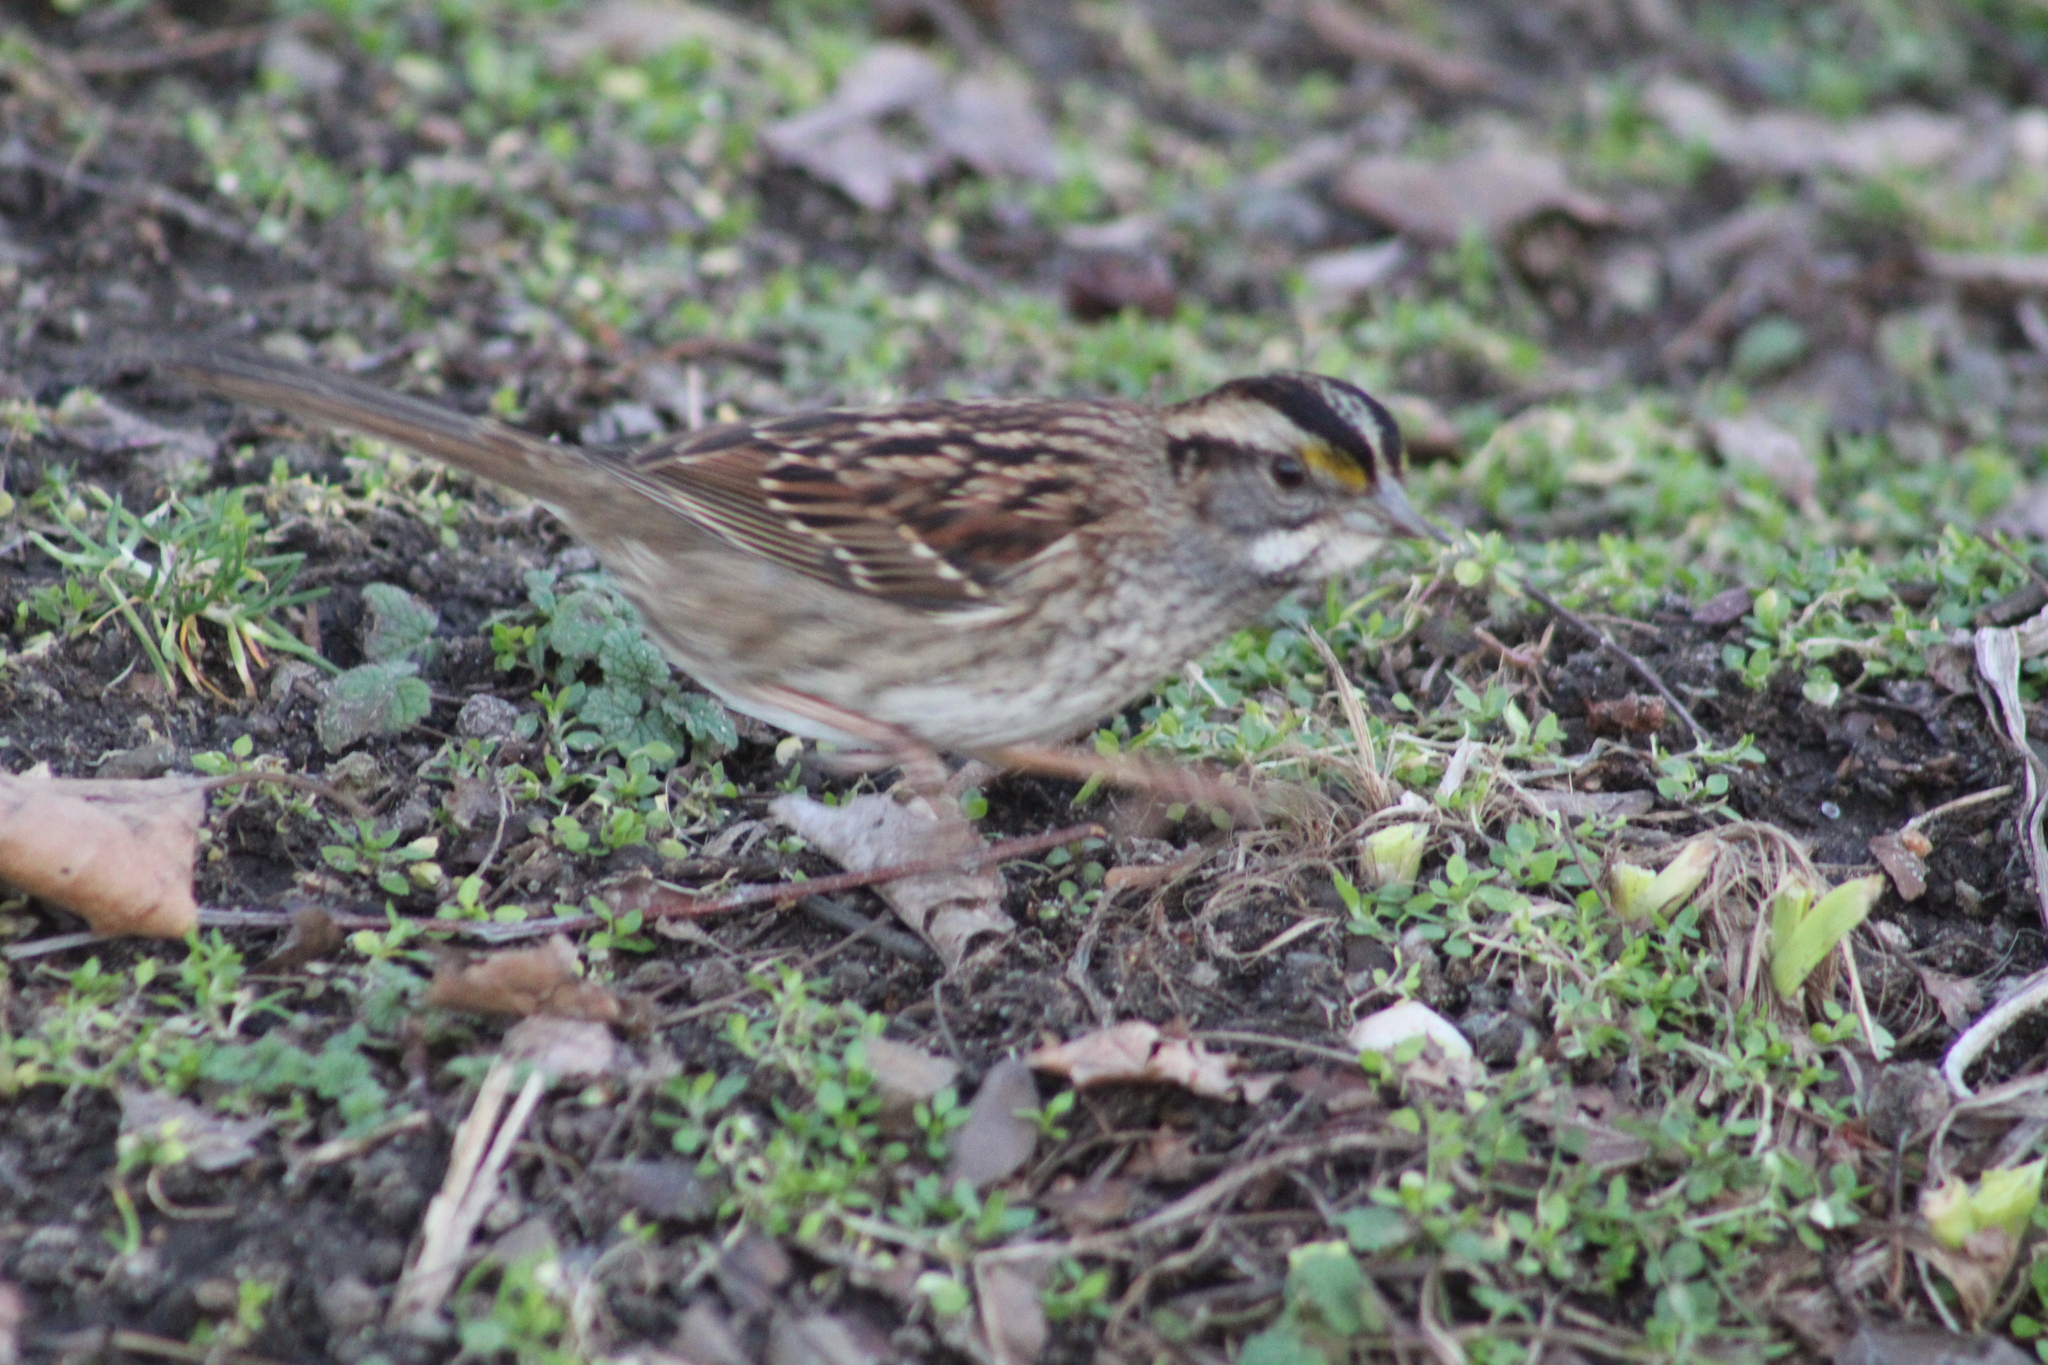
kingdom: Animalia
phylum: Chordata
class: Aves
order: Passeriformes
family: Passerellidae
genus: Zonotrichia
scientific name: Zonotrichia albicollis
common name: White-throated sparrow
